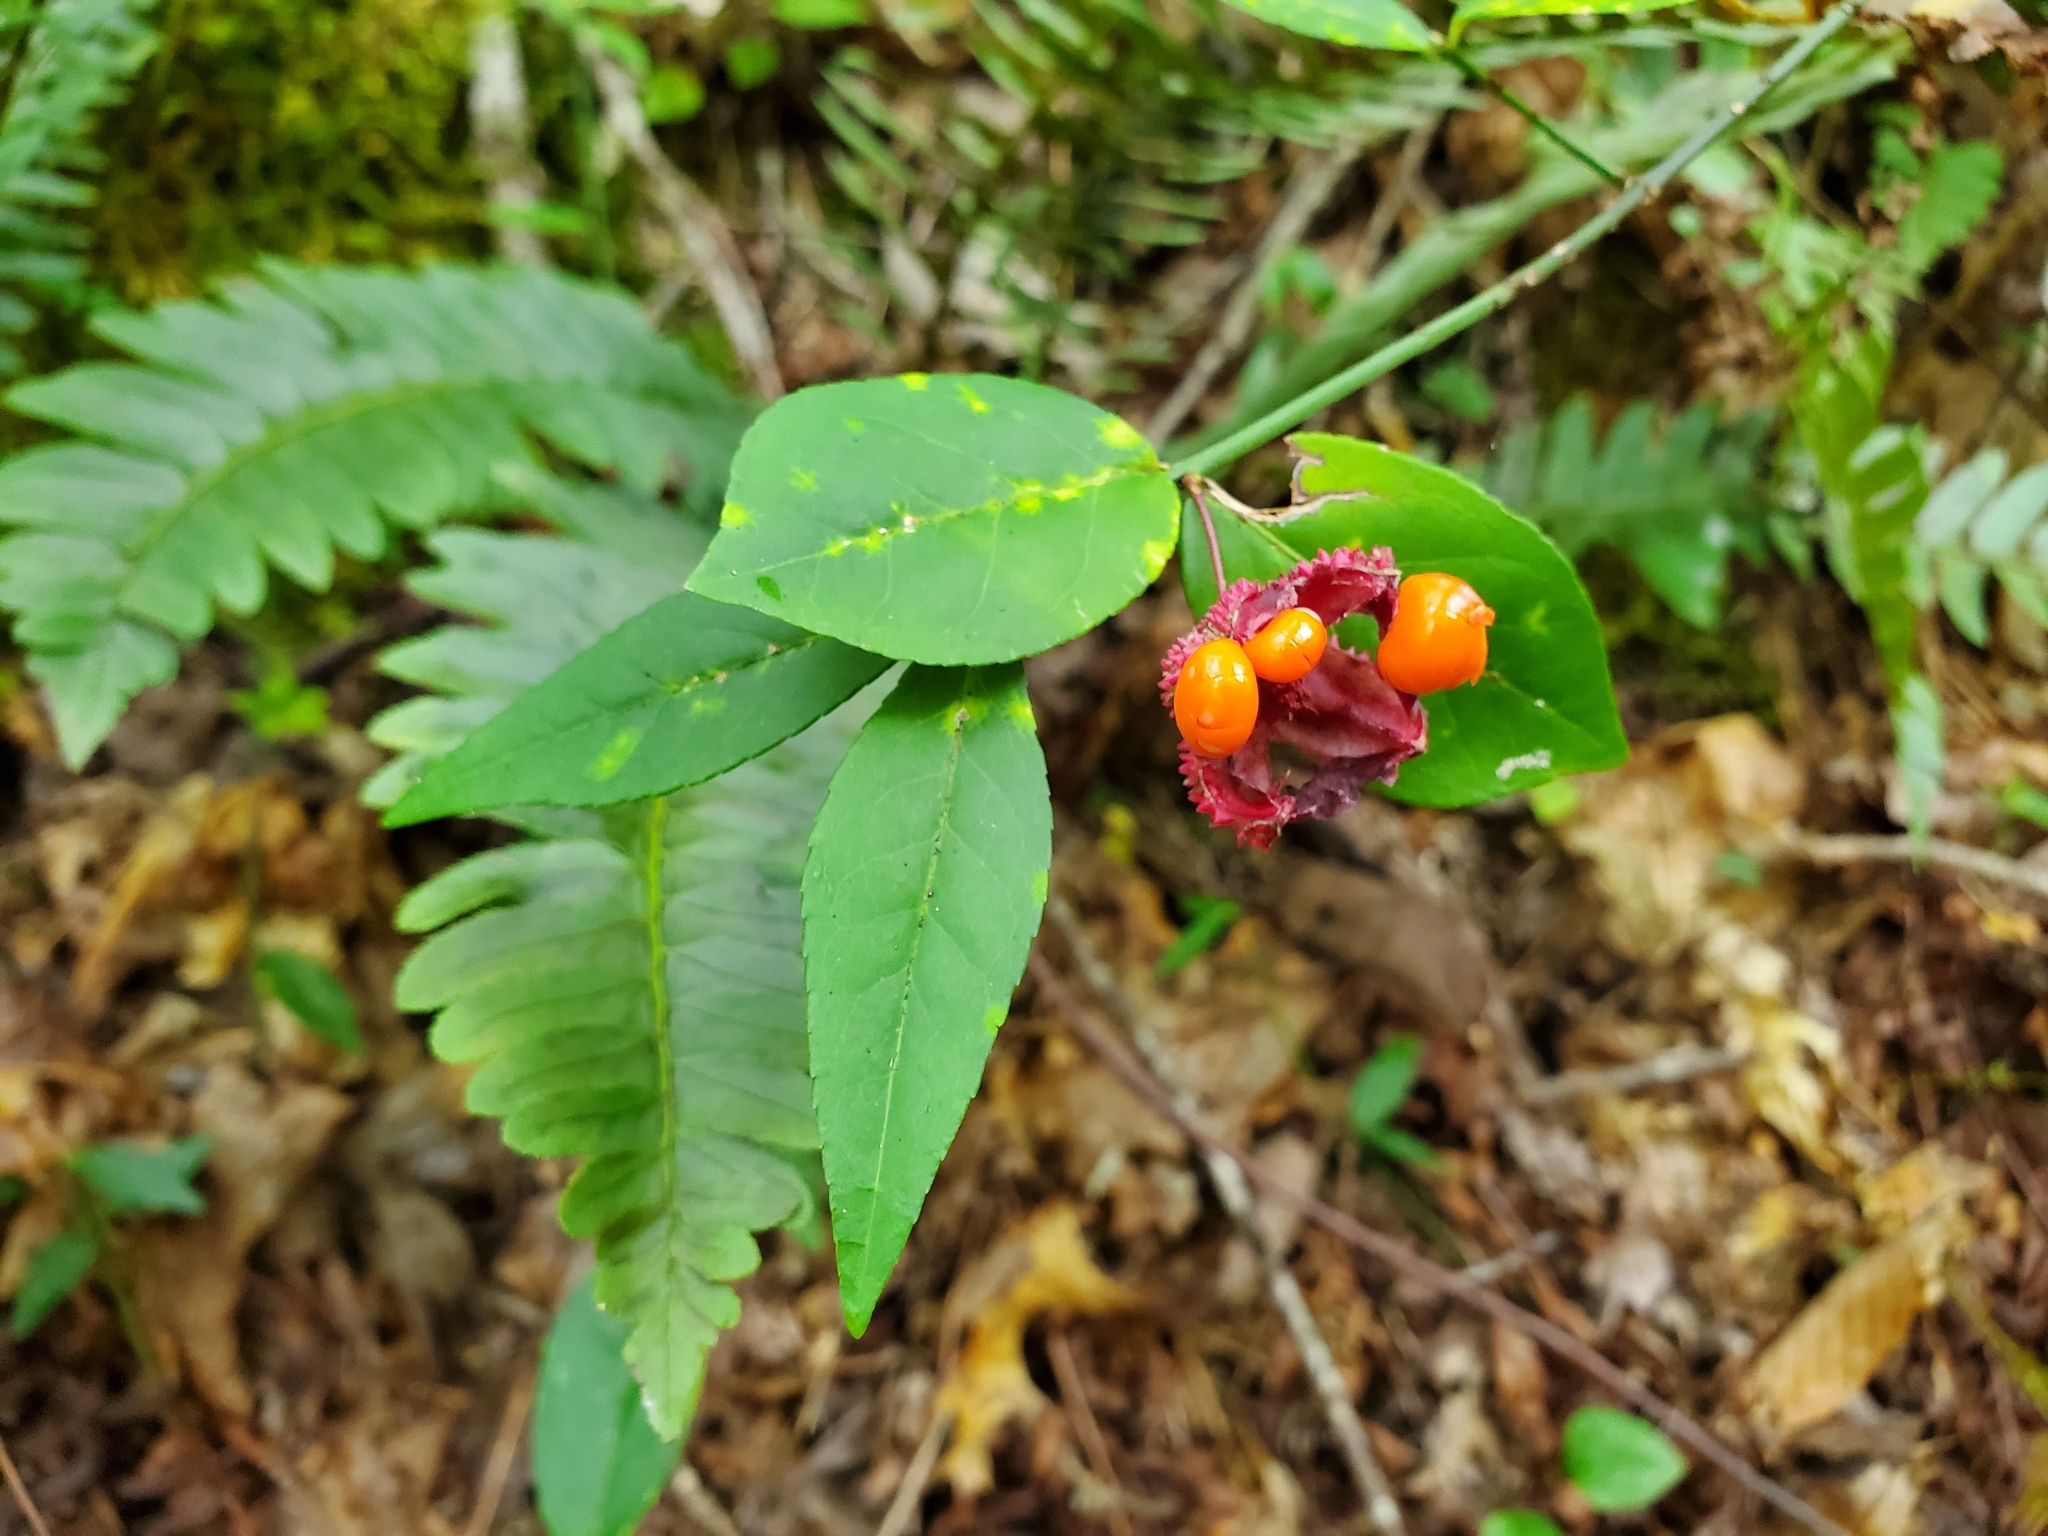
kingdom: Plantae
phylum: Tracheophyta
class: Magnoliopsida
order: Celastrales
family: Celastraceae
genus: Euonymus
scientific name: Euonymus americanus
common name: Bursting-heart
